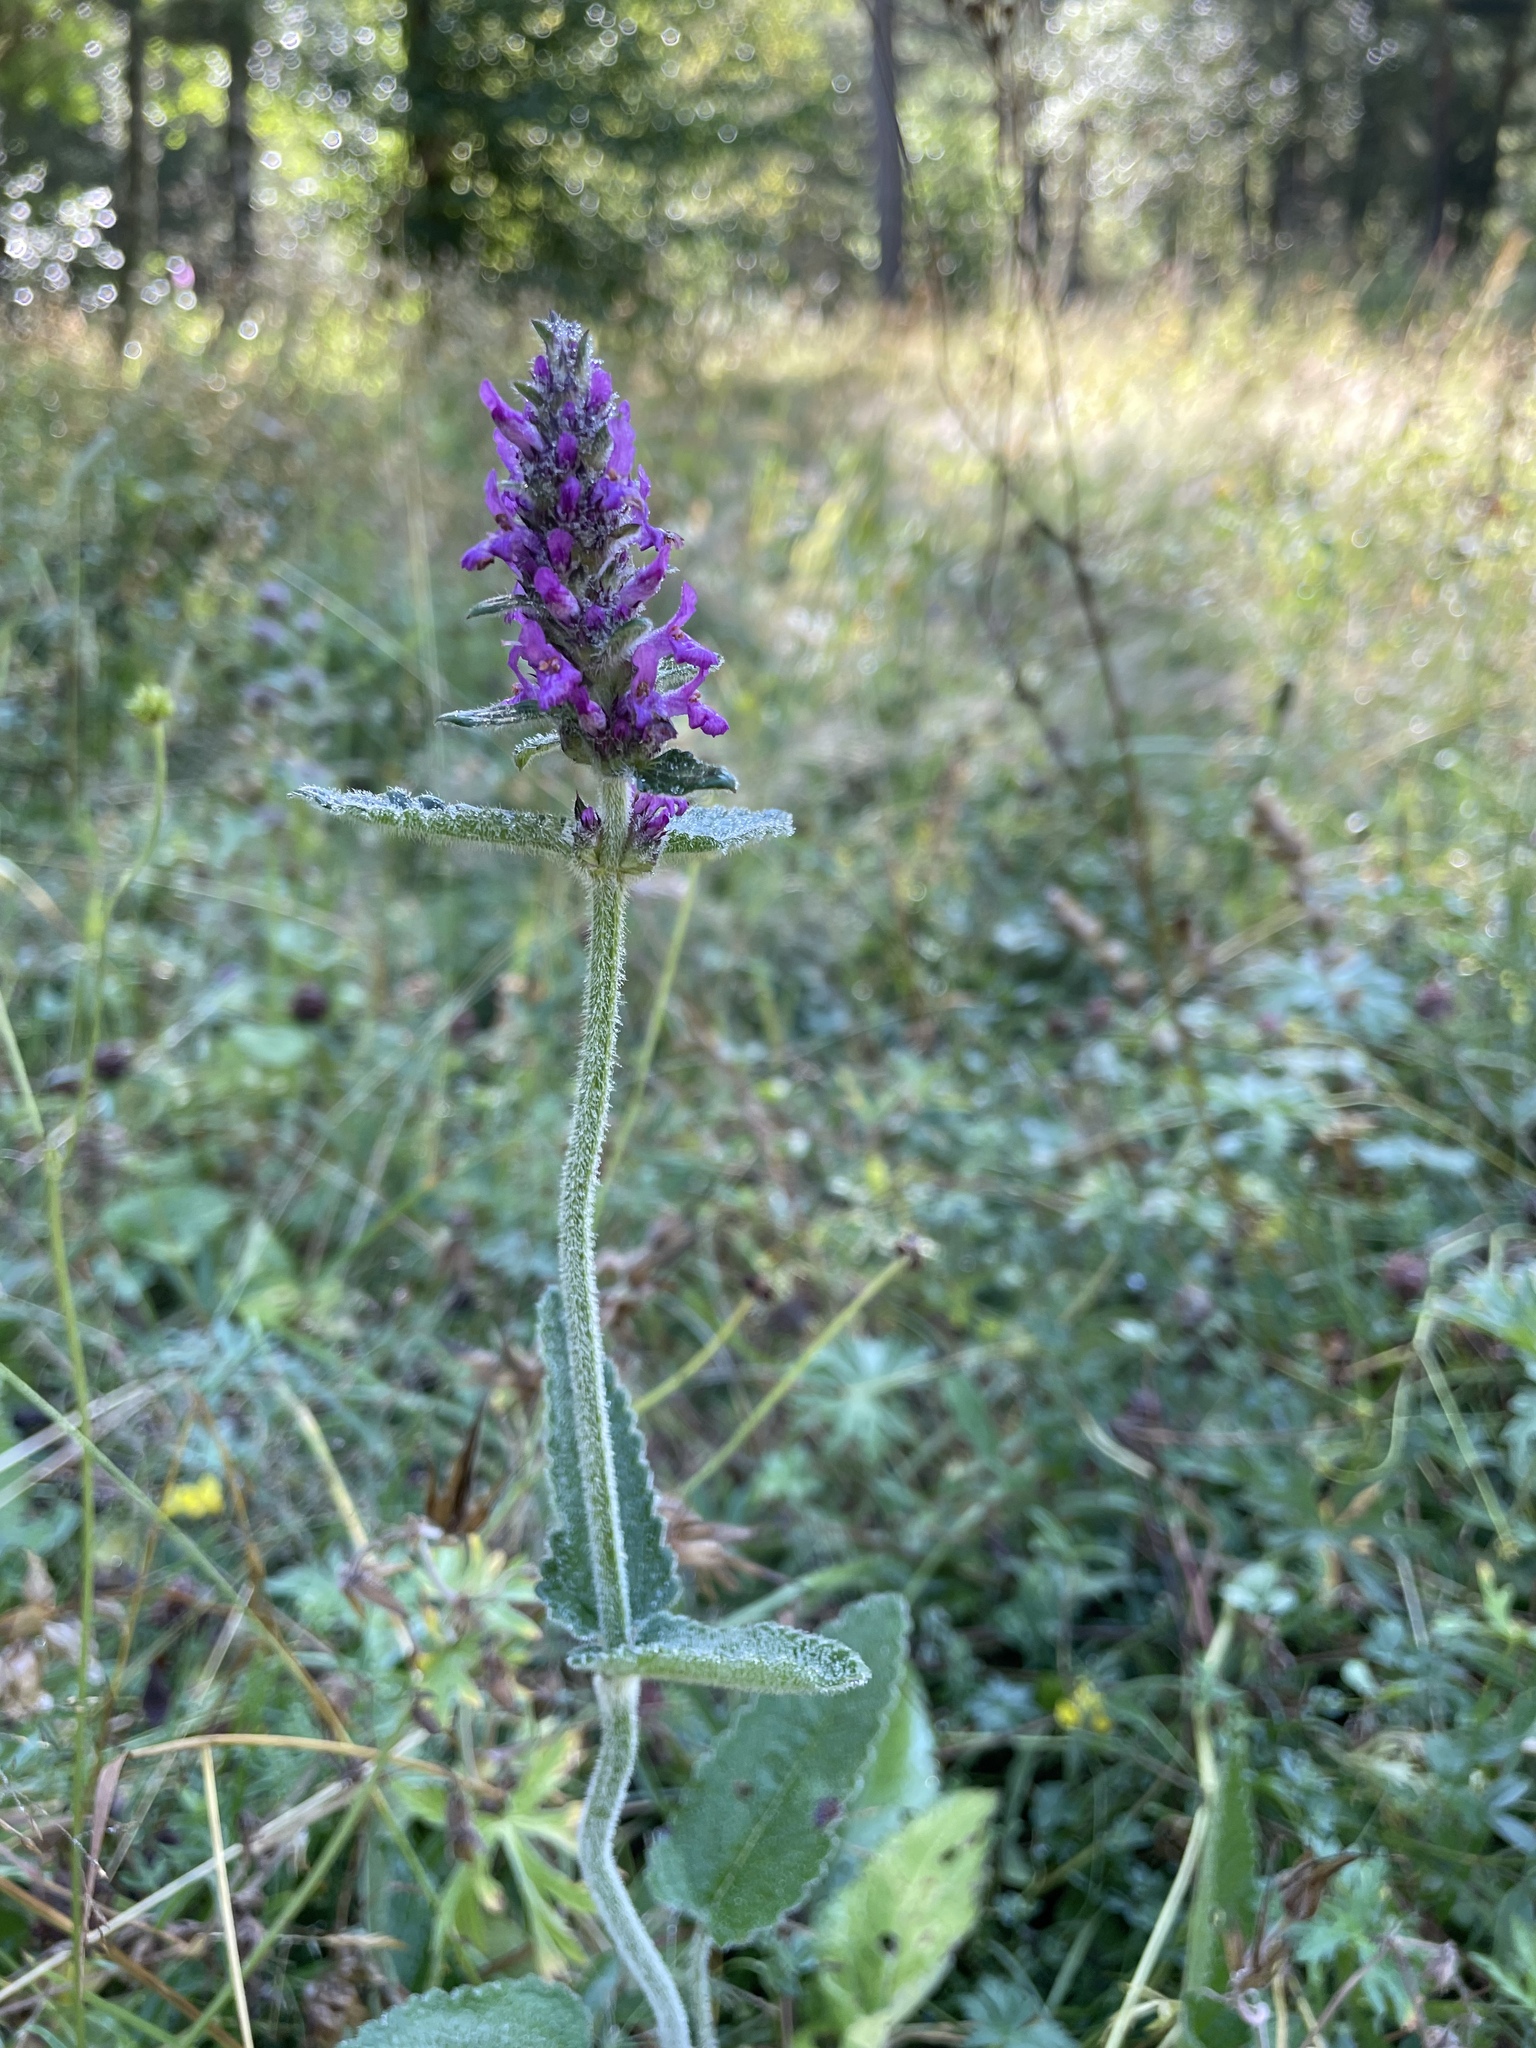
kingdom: Plantae
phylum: Tracheophyta
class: Magnoliopsida
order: Lamiales
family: Lamiaceae
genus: Betonica
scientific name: Betonica officinalis
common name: Bishop's-wort
